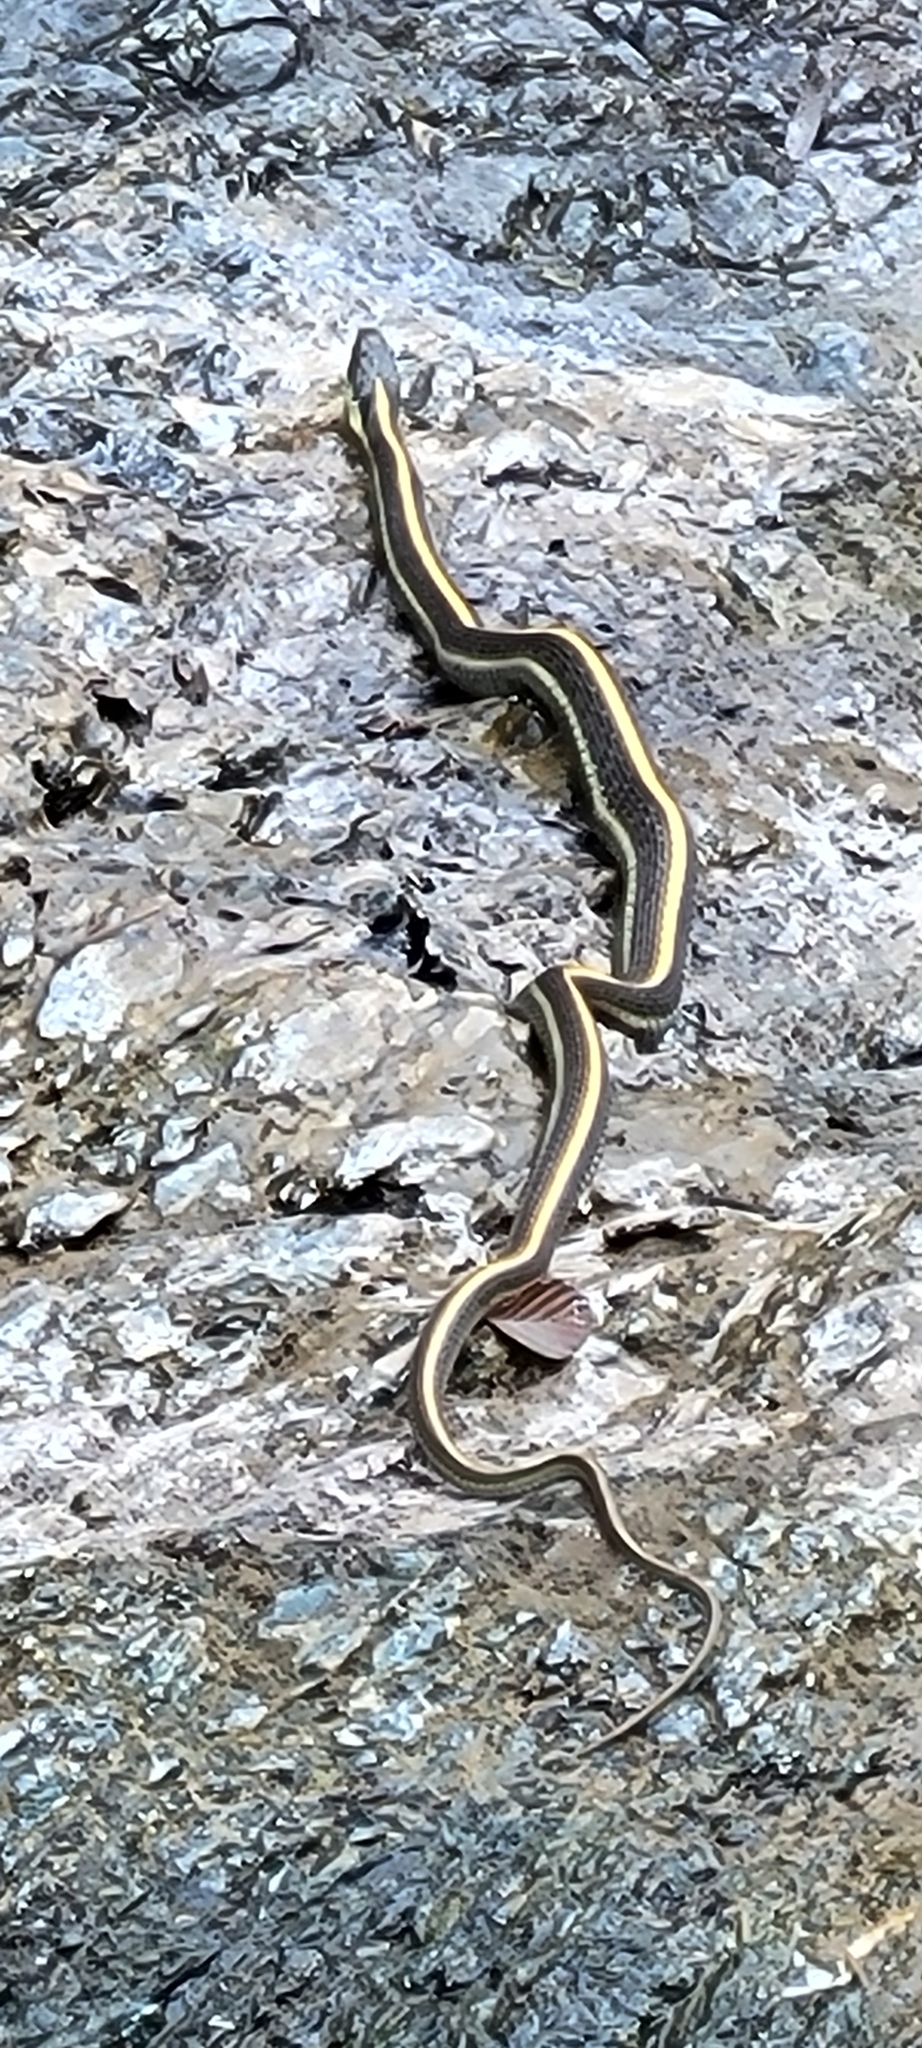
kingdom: Animalia
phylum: Chordata
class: Squamata
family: Colubridae
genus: Thamnophis
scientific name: Thamnophis atratus
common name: Pacific coast aquatic garter snake
